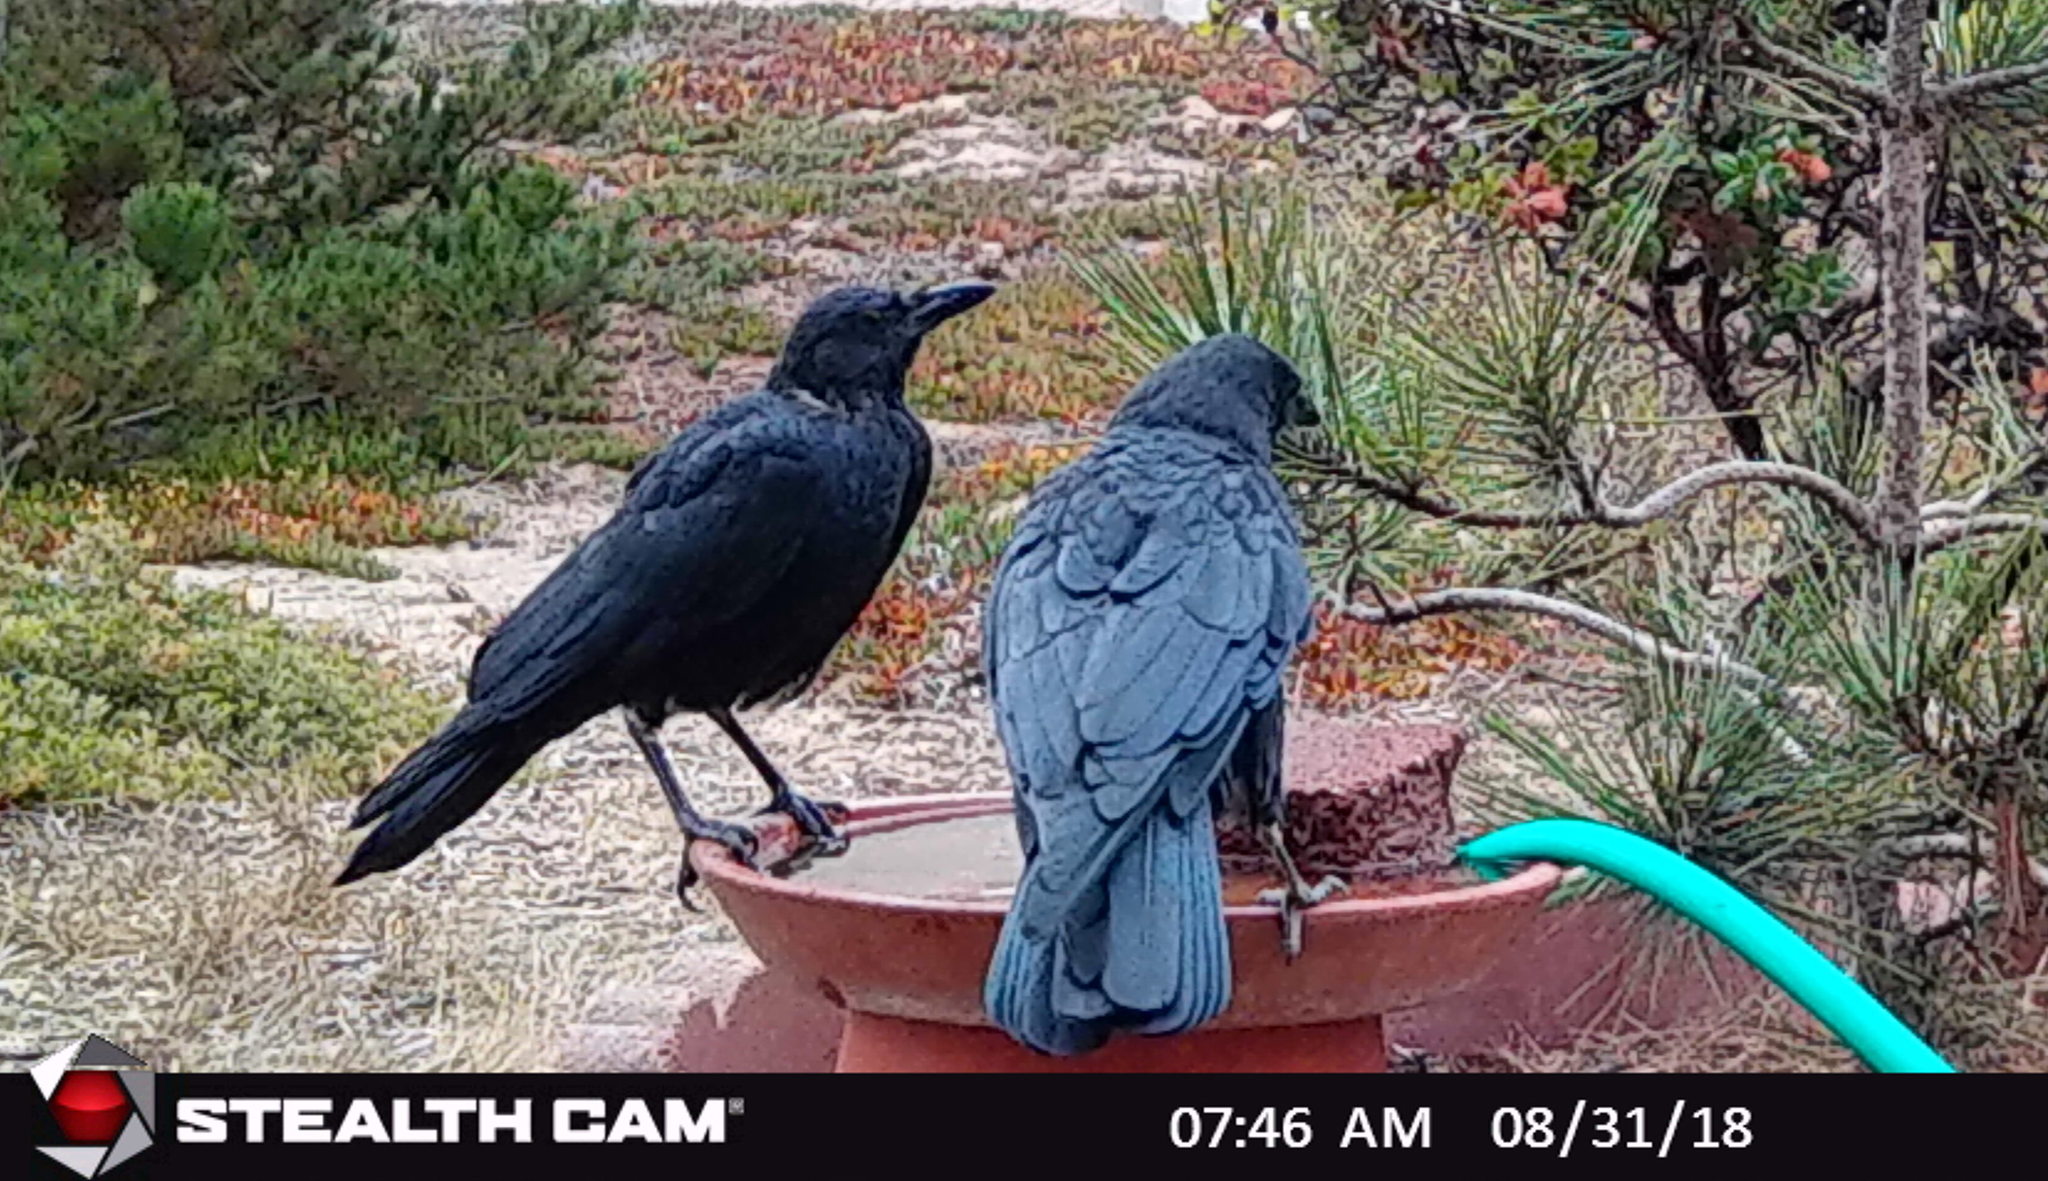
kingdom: Animalia
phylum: Chordata
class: Aves
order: Passeriformes
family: Corvidae
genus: Corvus
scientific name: Corvus brachyrhynchos
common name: American crow
